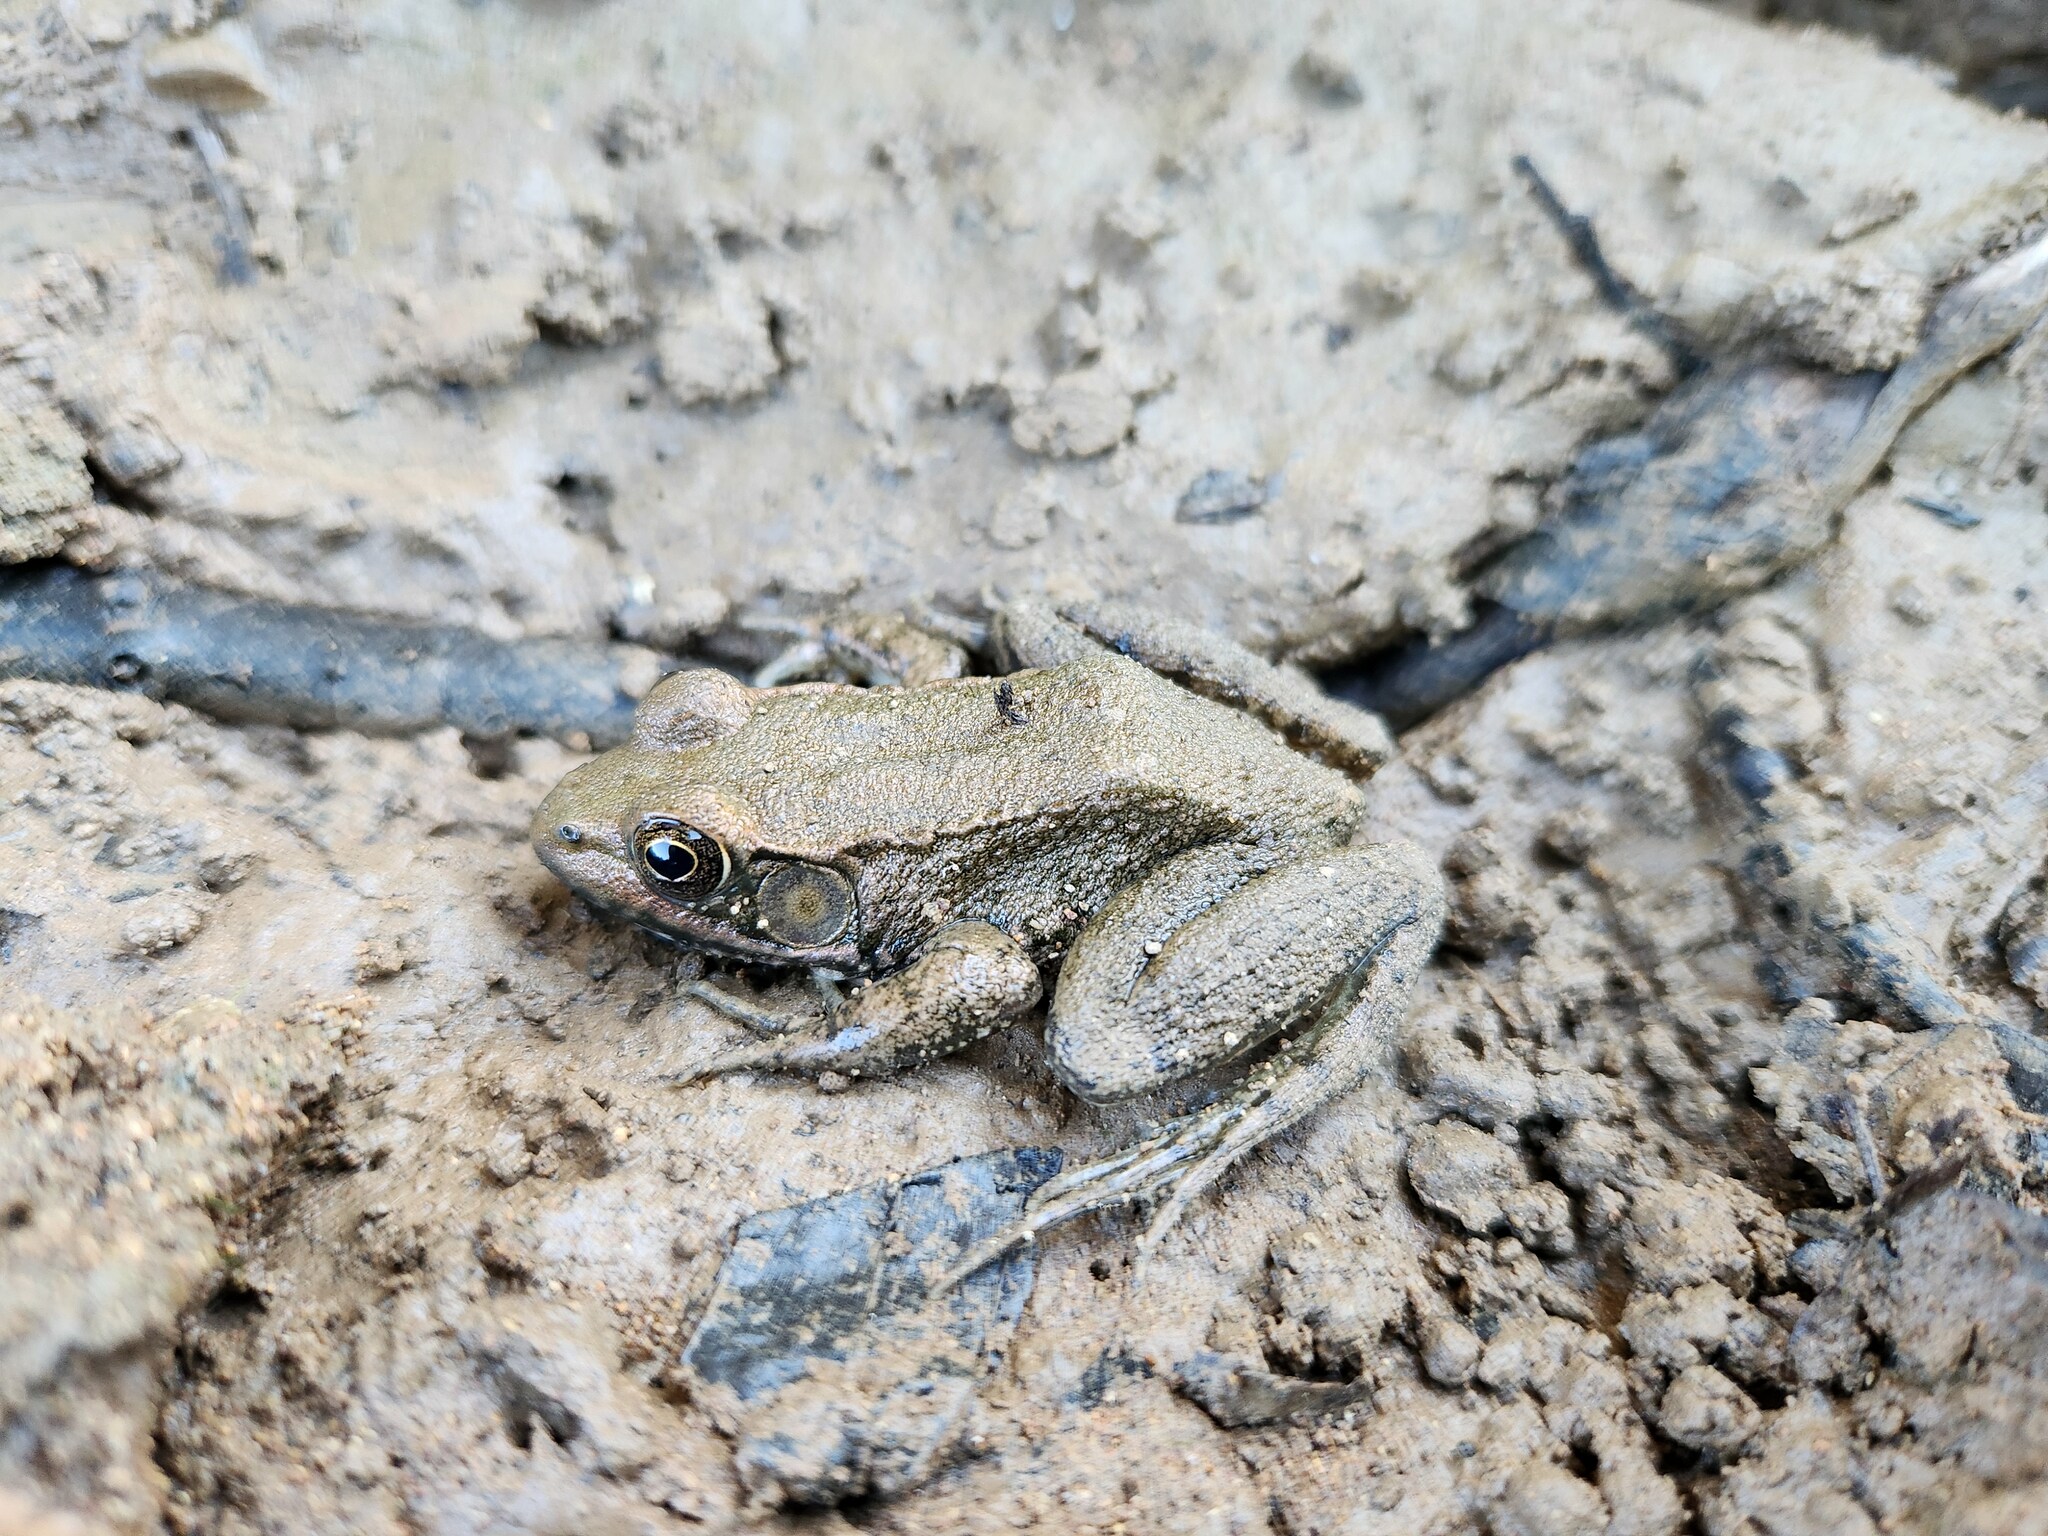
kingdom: Animalia
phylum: Chordata
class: Amphibia
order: Anura
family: Ranidae
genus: Lithobates
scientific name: Lithobates clamitans
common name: Green frog
